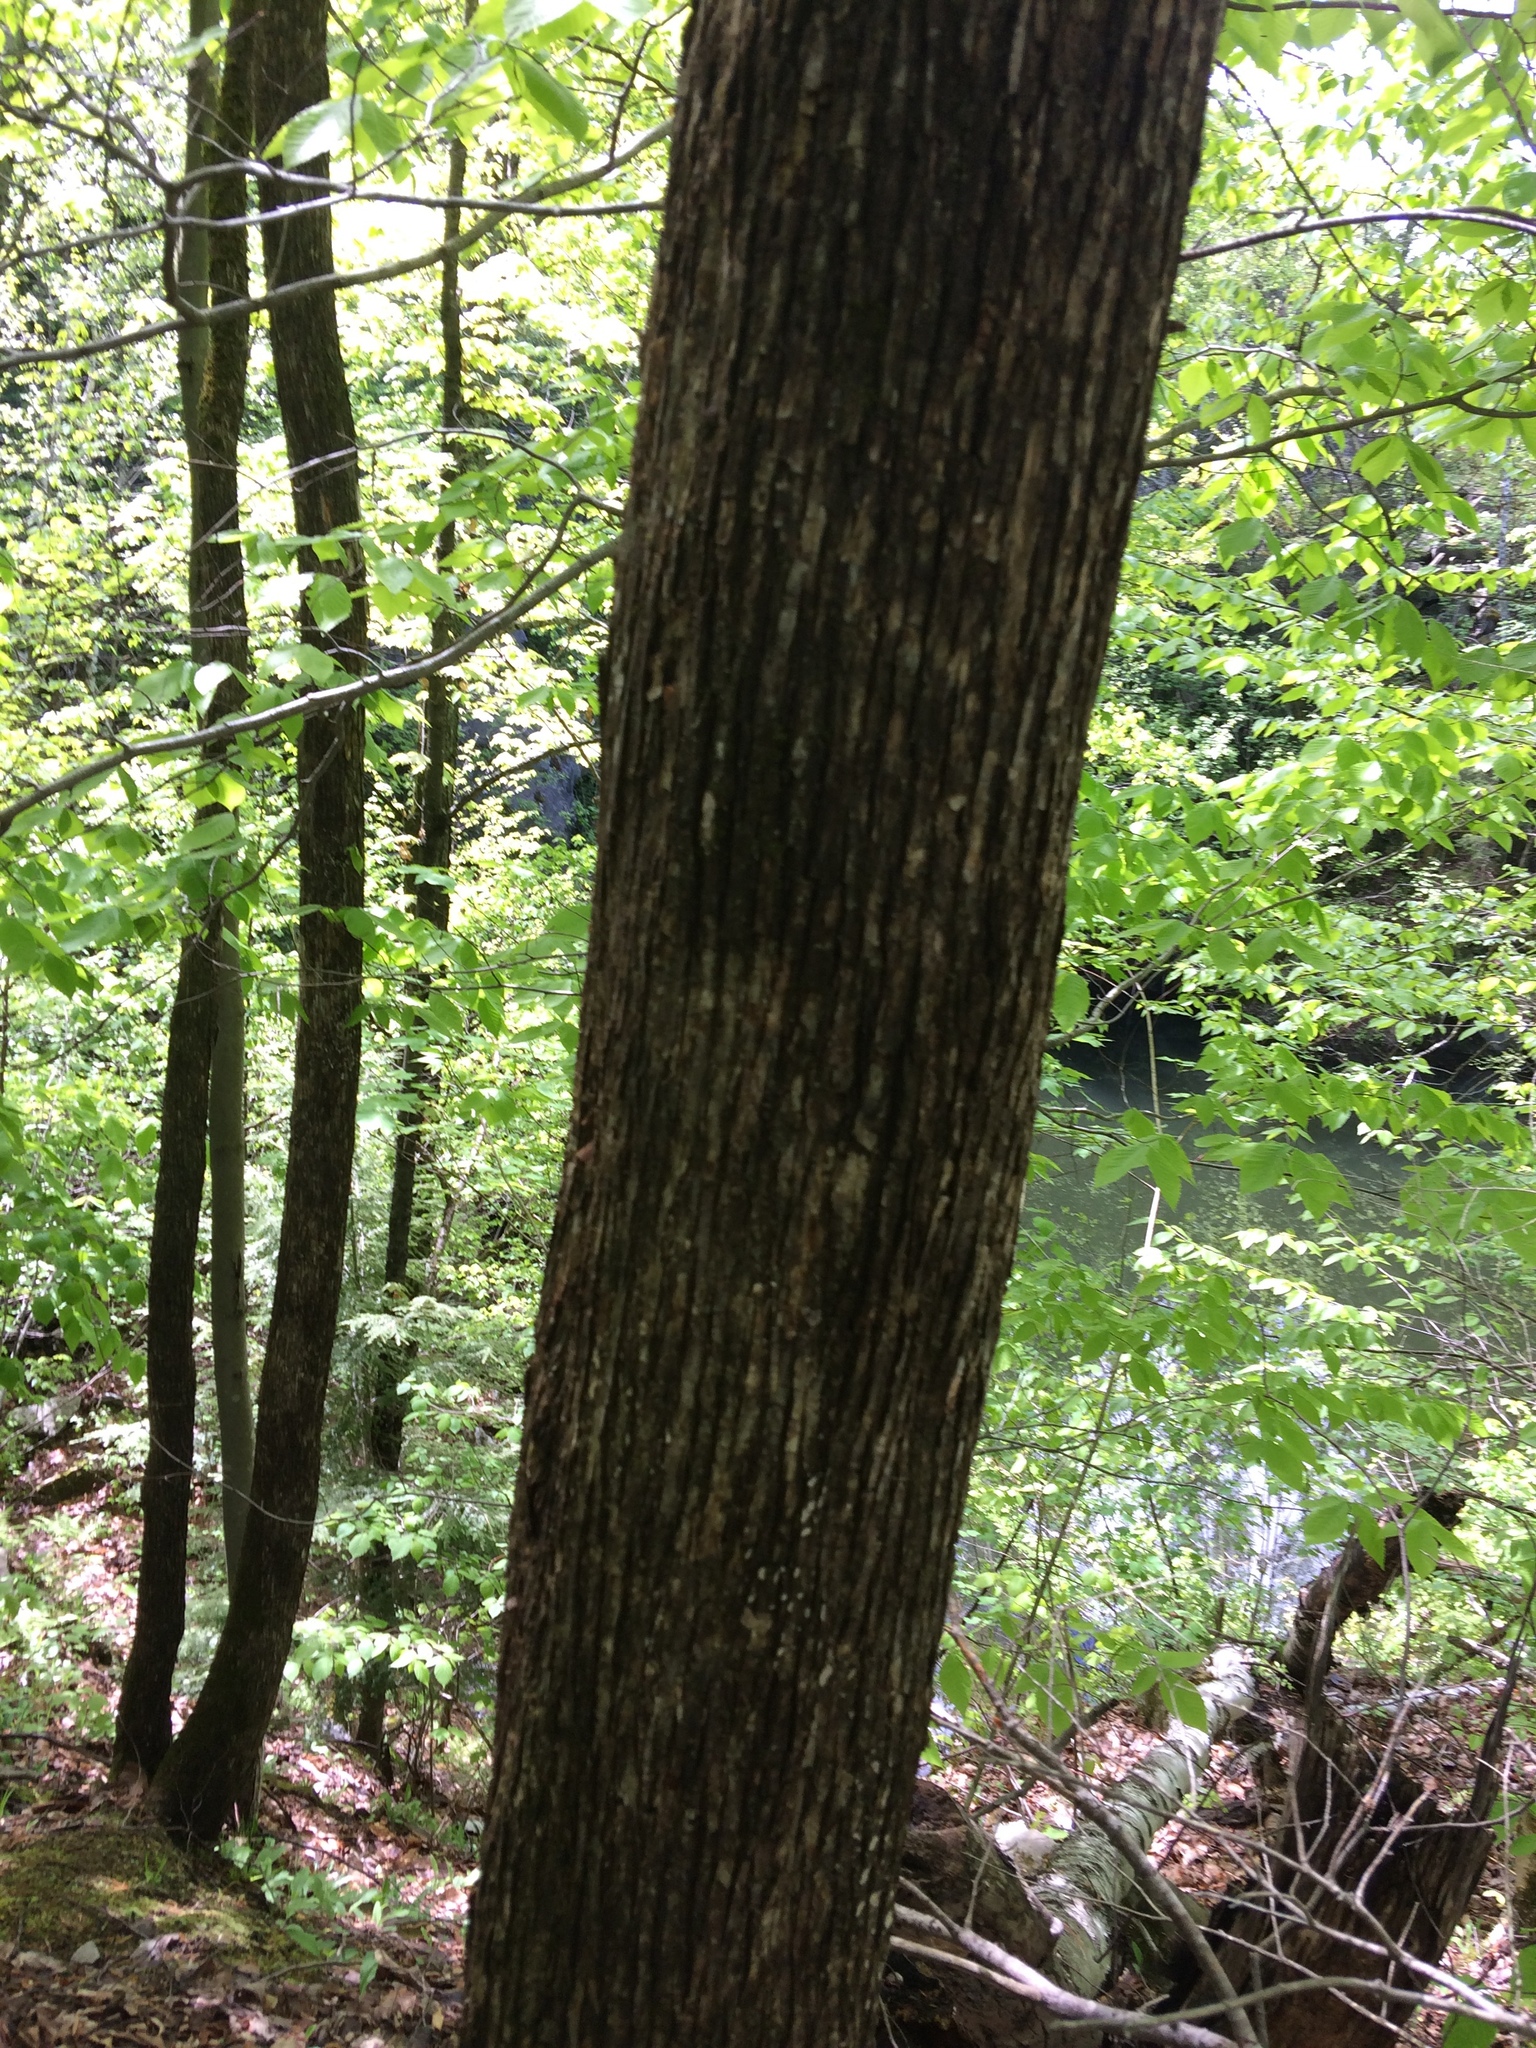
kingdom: Plantae
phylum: Tracheophyta
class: Magnoliopsida
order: Fagales
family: Betulaceae
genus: Ostrya
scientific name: Ostrya virginiana
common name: Ironwood
